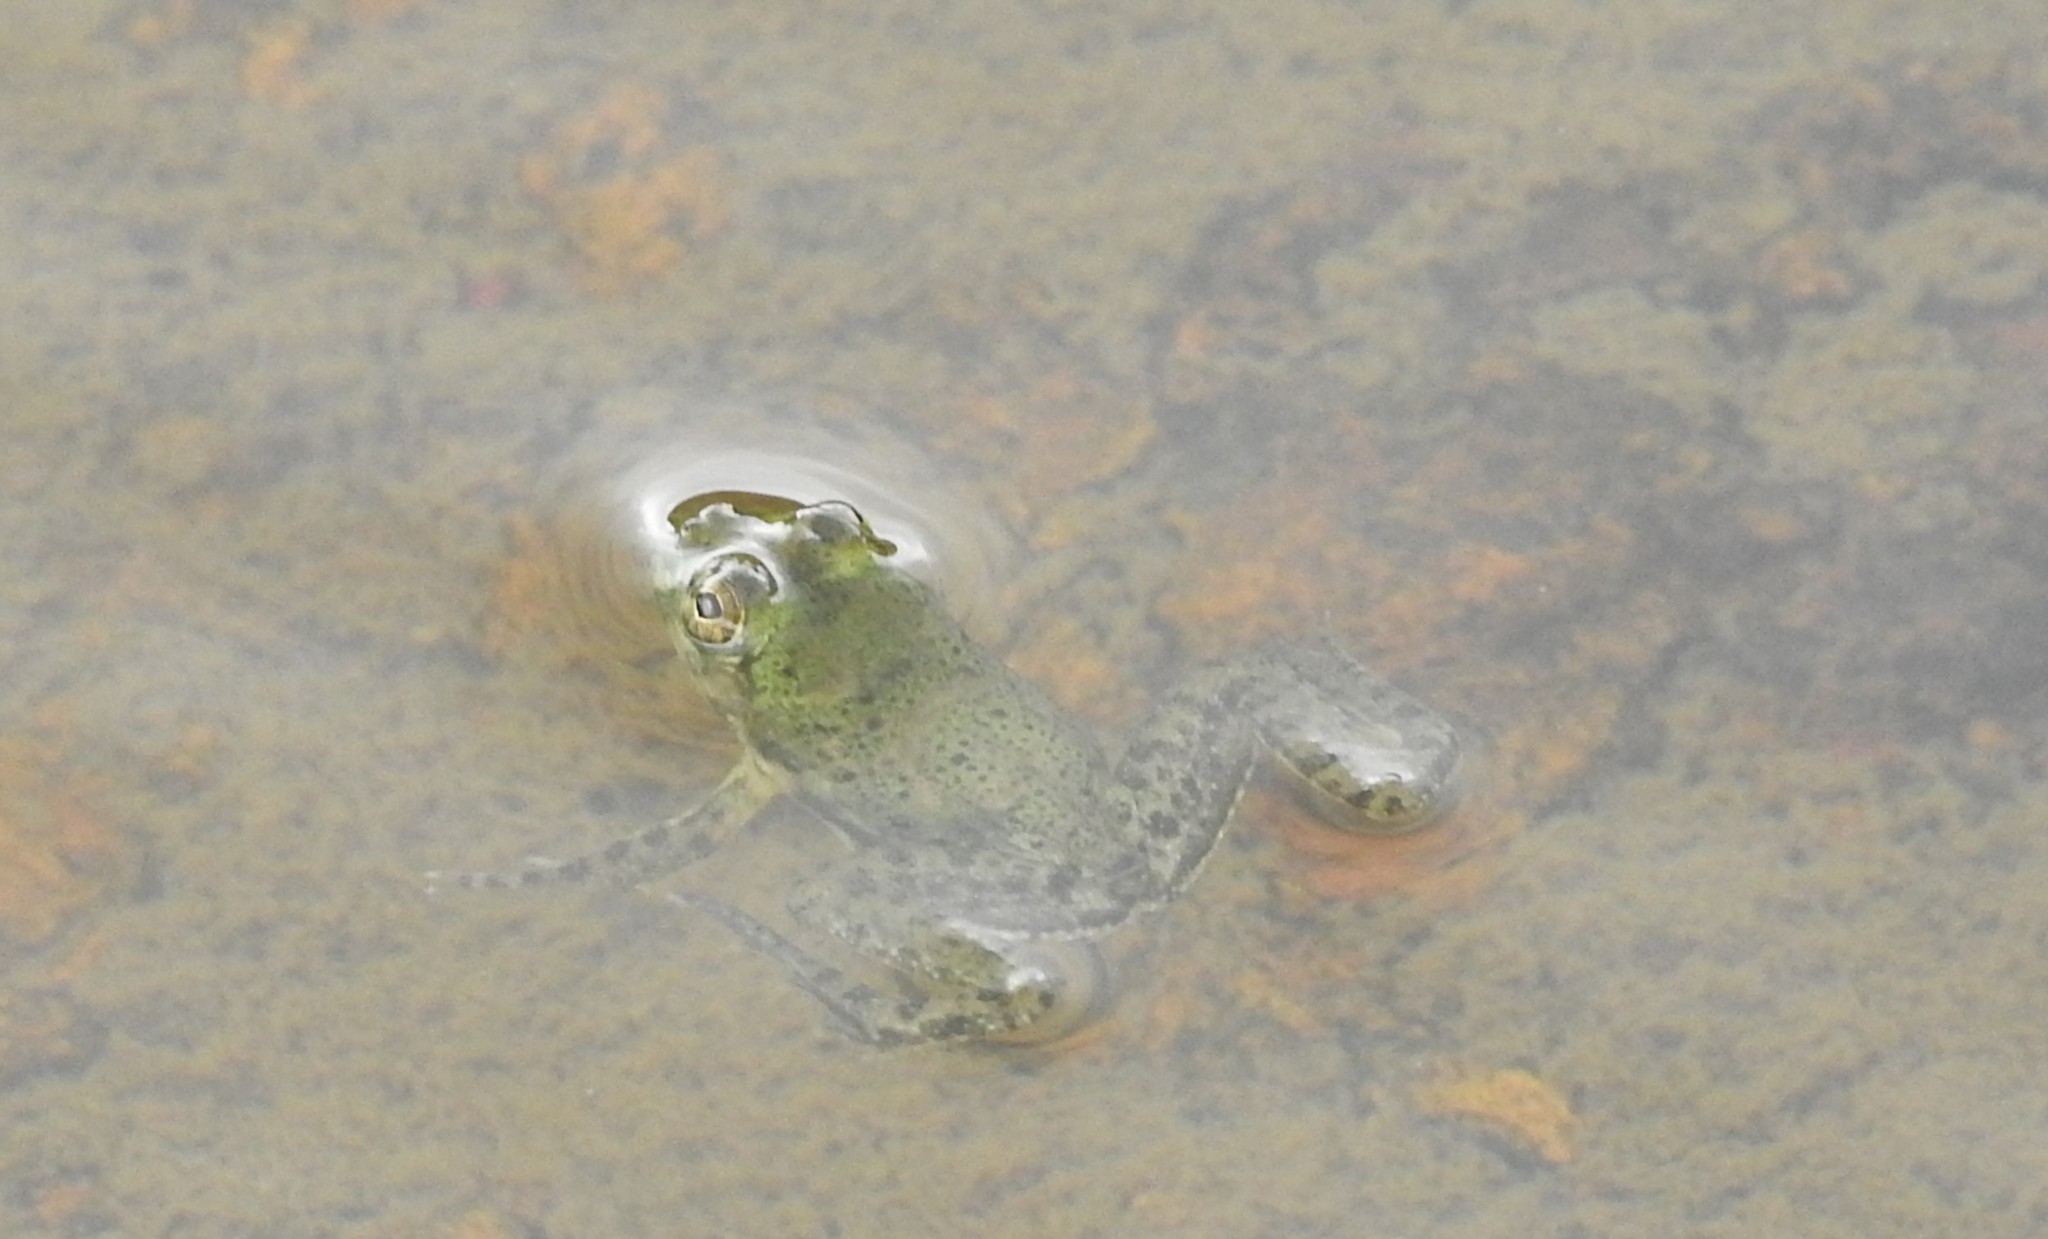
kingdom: Animalia
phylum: Chordata
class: Amphibia
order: Anura
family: Dicroglossidae
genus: Euphlyctis
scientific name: Euphlyctis cyanophlyctis
